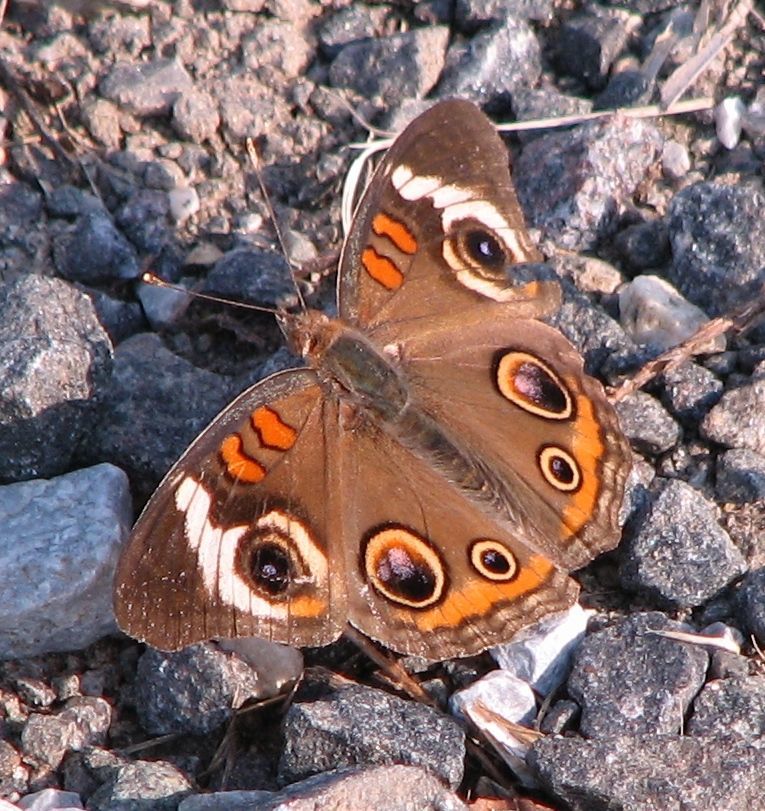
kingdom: Animalia
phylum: Arthropoda
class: Insecta
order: Lepidoptera
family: Nymphalidae
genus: Junonia
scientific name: Junonia coenia
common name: Common buckeye
